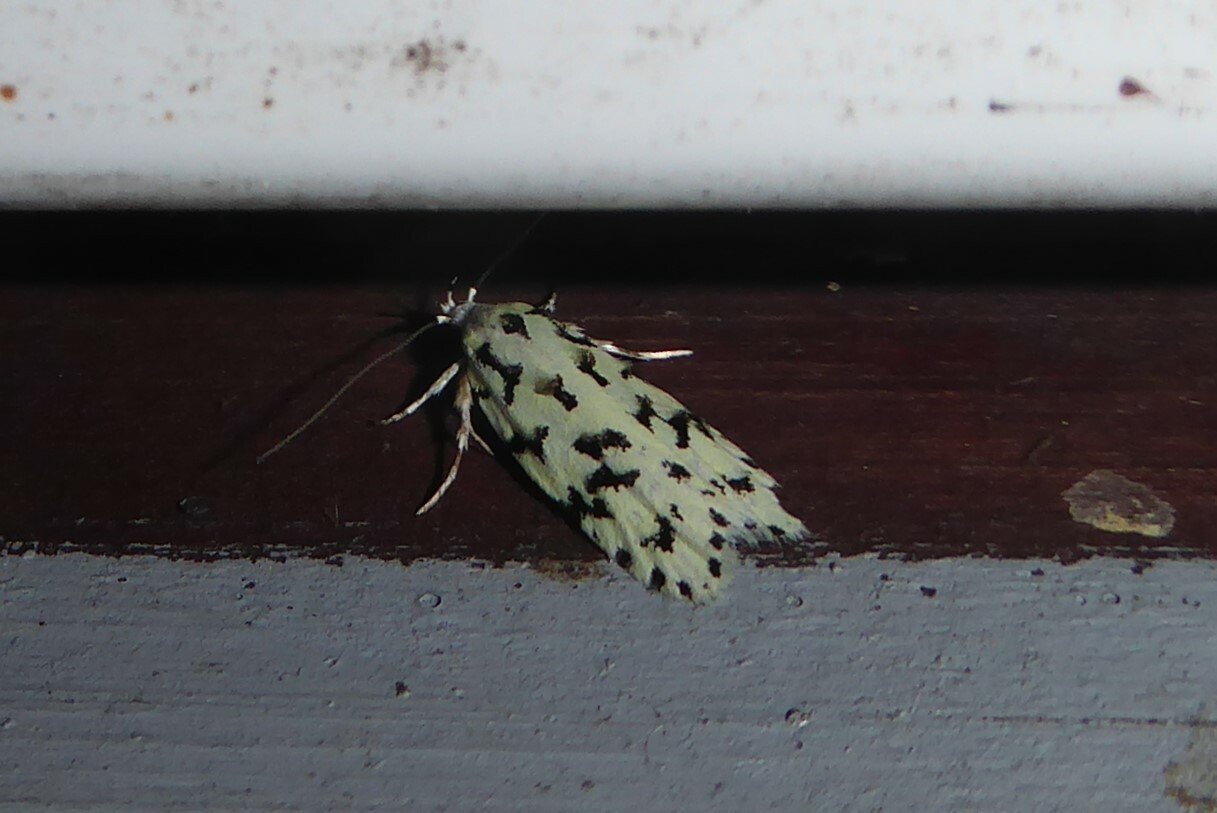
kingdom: Animalia
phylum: Arthropoda
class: Insecta
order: Lepidoptera
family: Oecophoridae
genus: Izatha
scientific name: Izatha huttoni
